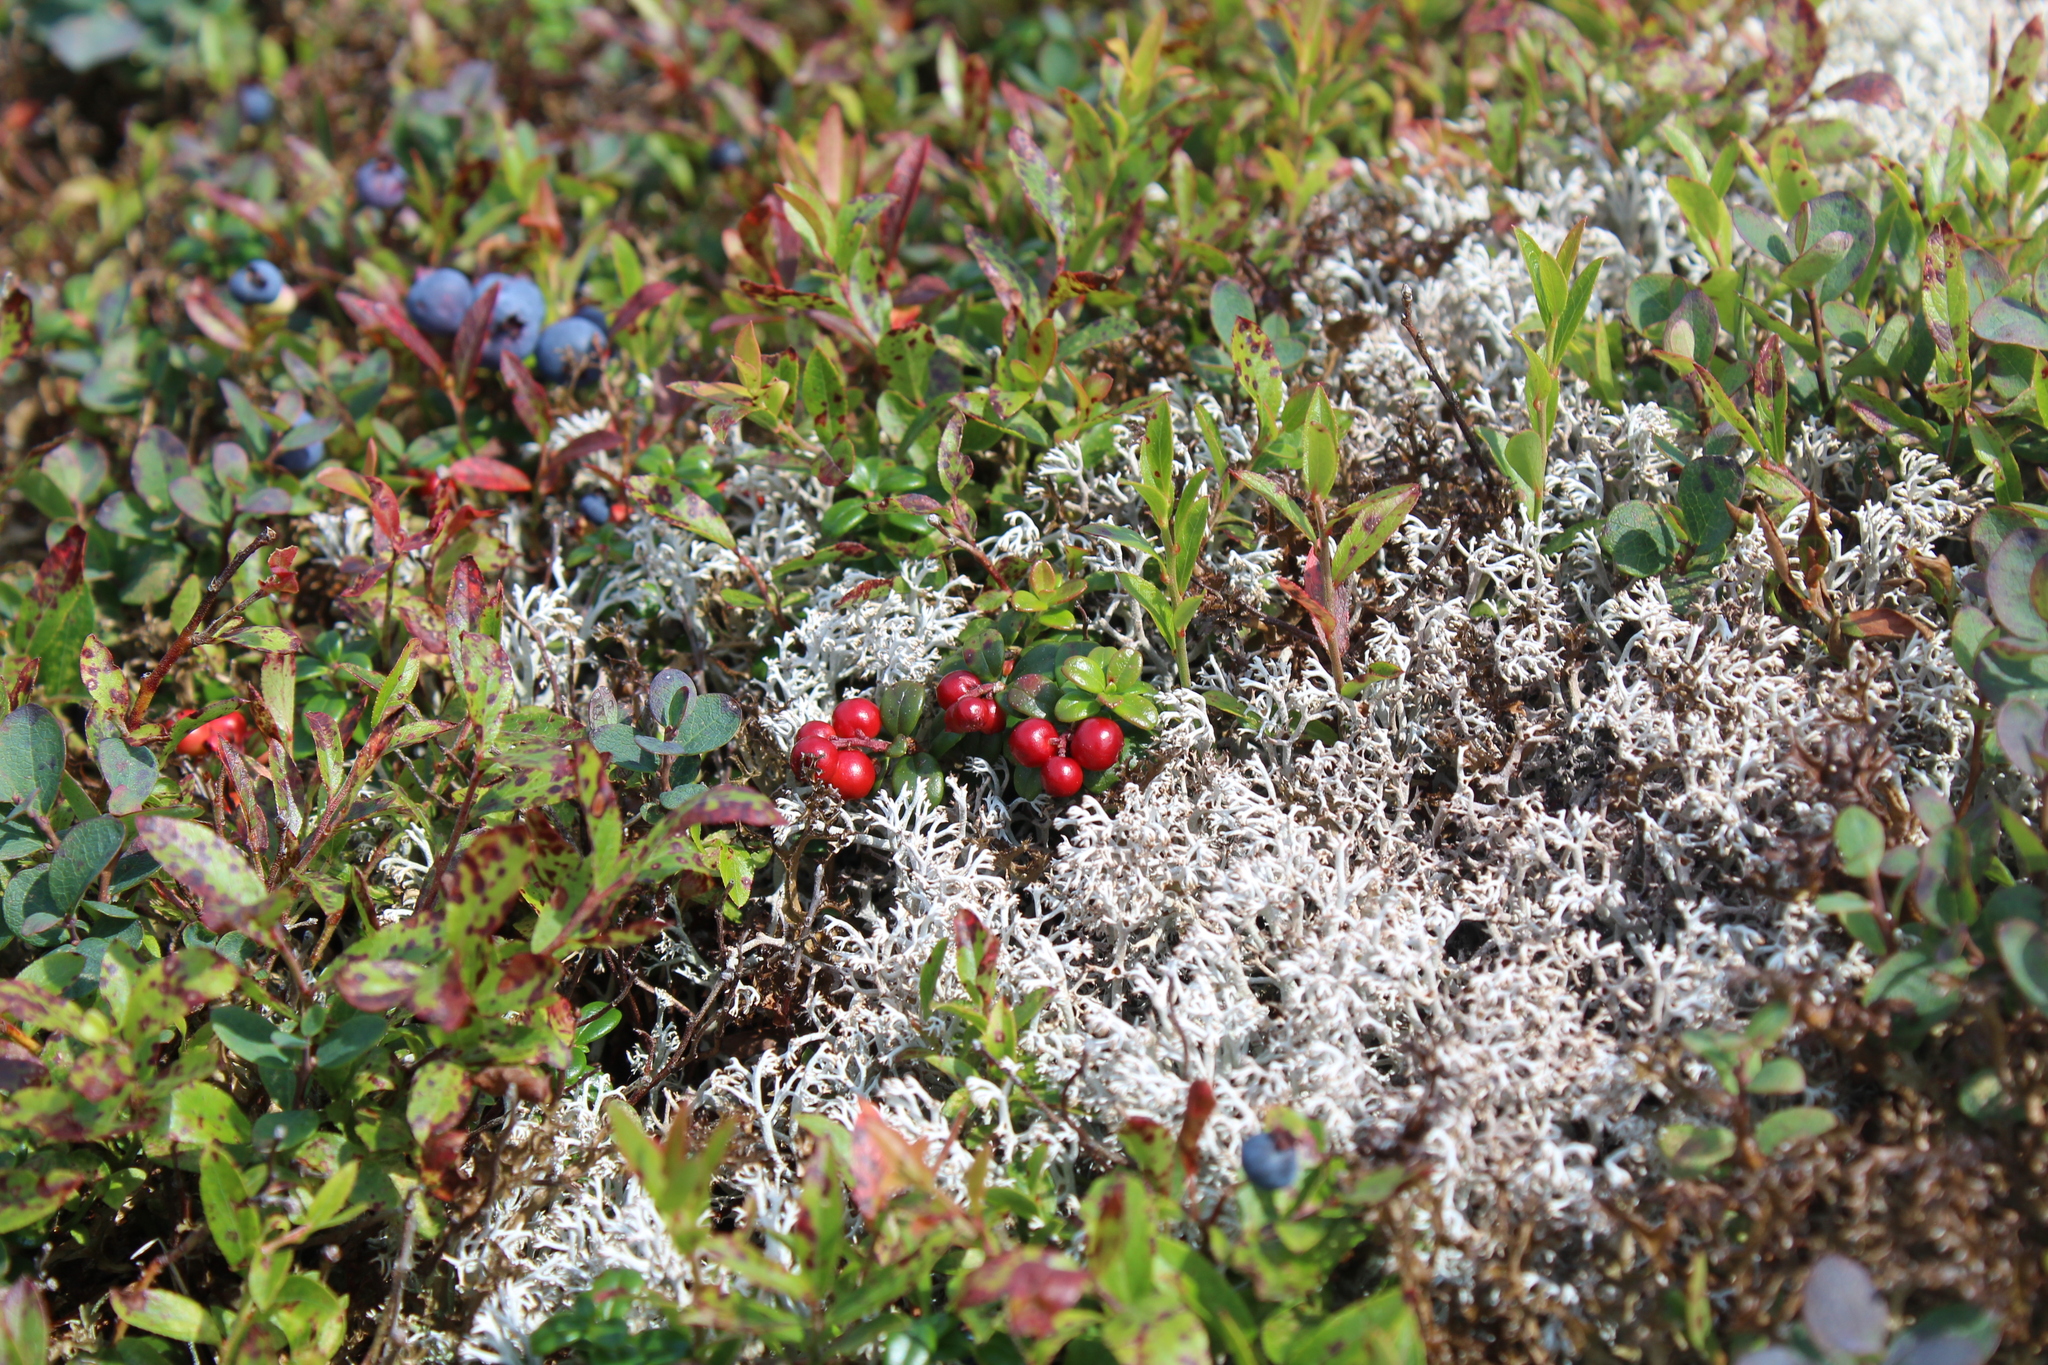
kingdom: Plantae
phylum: Tracheophyta
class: Magnoliopsida
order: Ericales
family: Ericaceae
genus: Vaccinium
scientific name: Vaccinium vitis-idaea
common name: Cowberry
